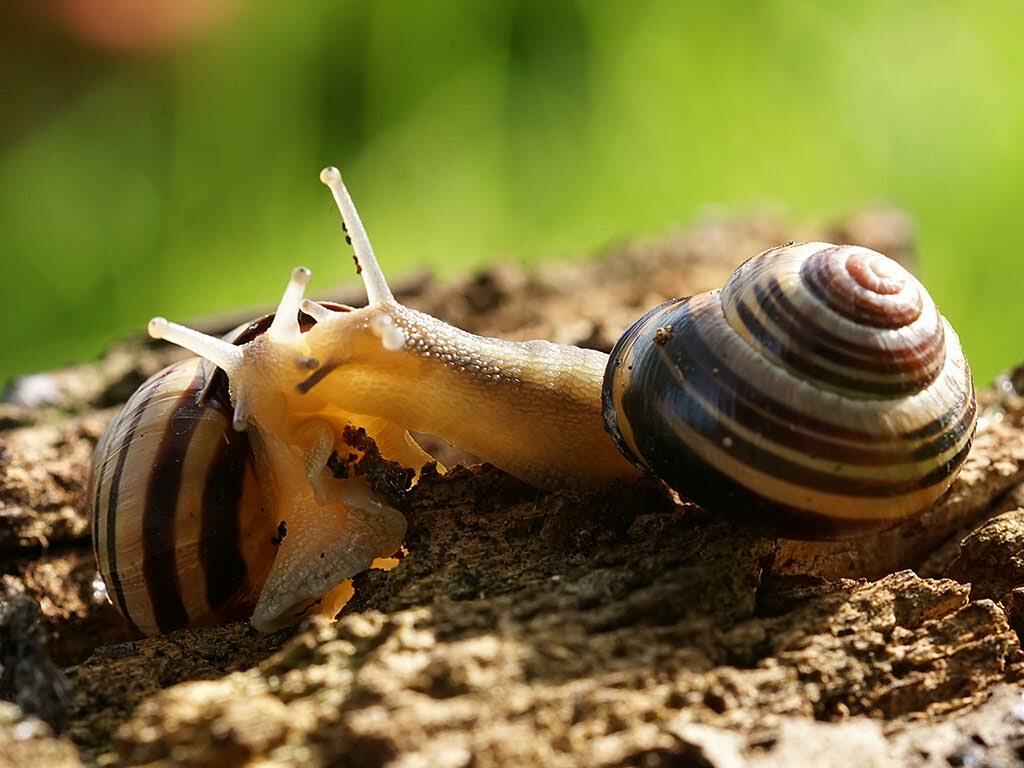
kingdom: Animalia
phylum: Mollusca
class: Gastropoda
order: Stylommatophora
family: Helicidae
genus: Cepaea
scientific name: Cepaea nemoralis
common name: Grovesnail
